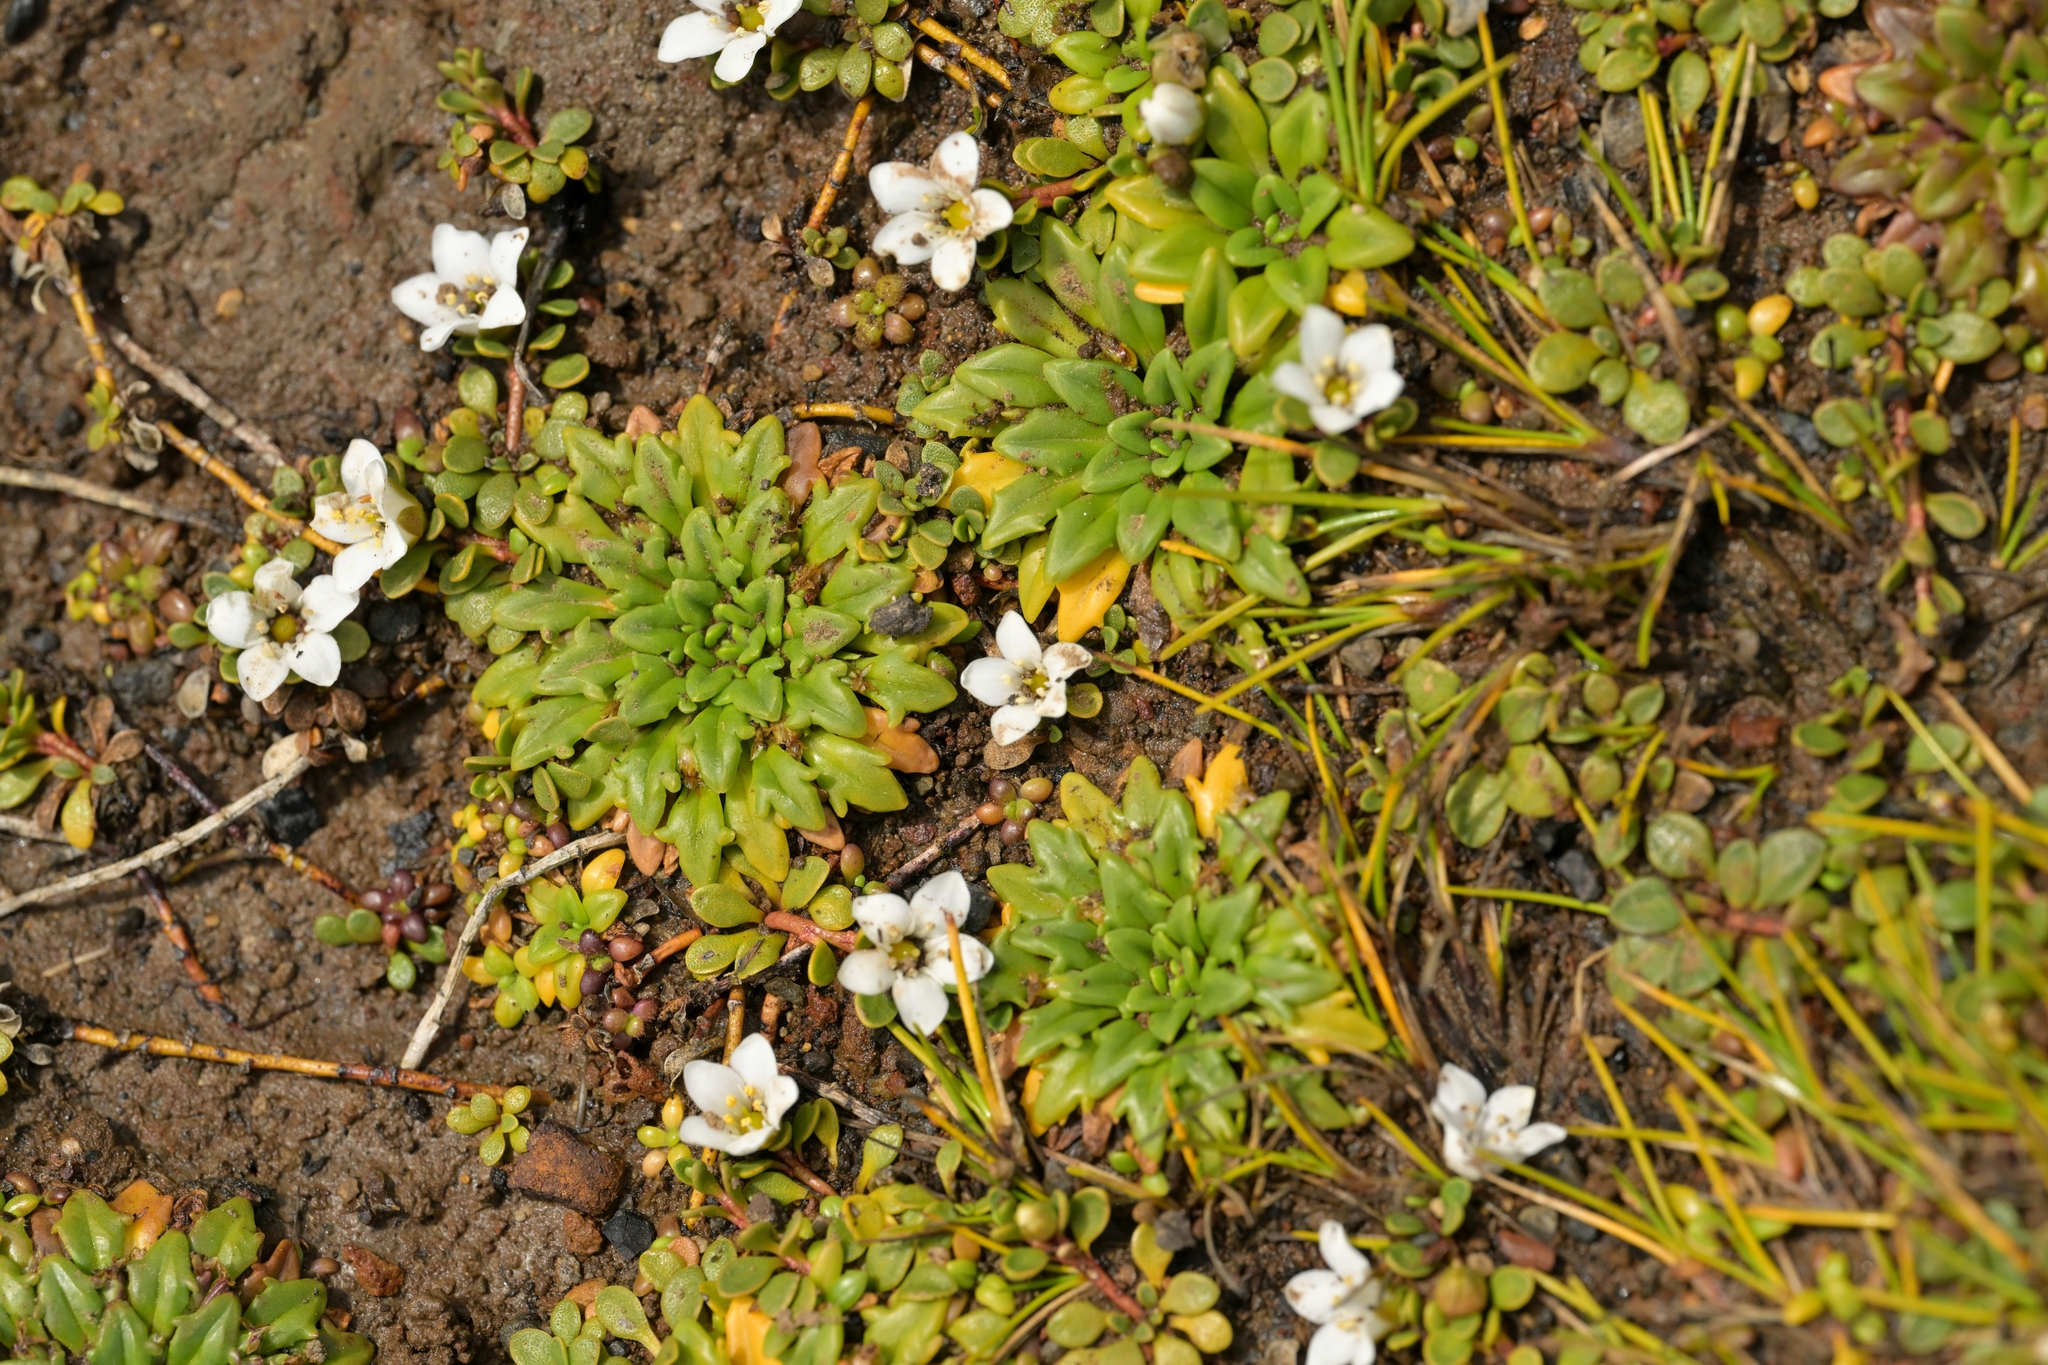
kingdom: Plantae
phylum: Tracheophyta
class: Magnoliopsida
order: Ericales
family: Primulaceae
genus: Samolus
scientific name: Samolus repens
